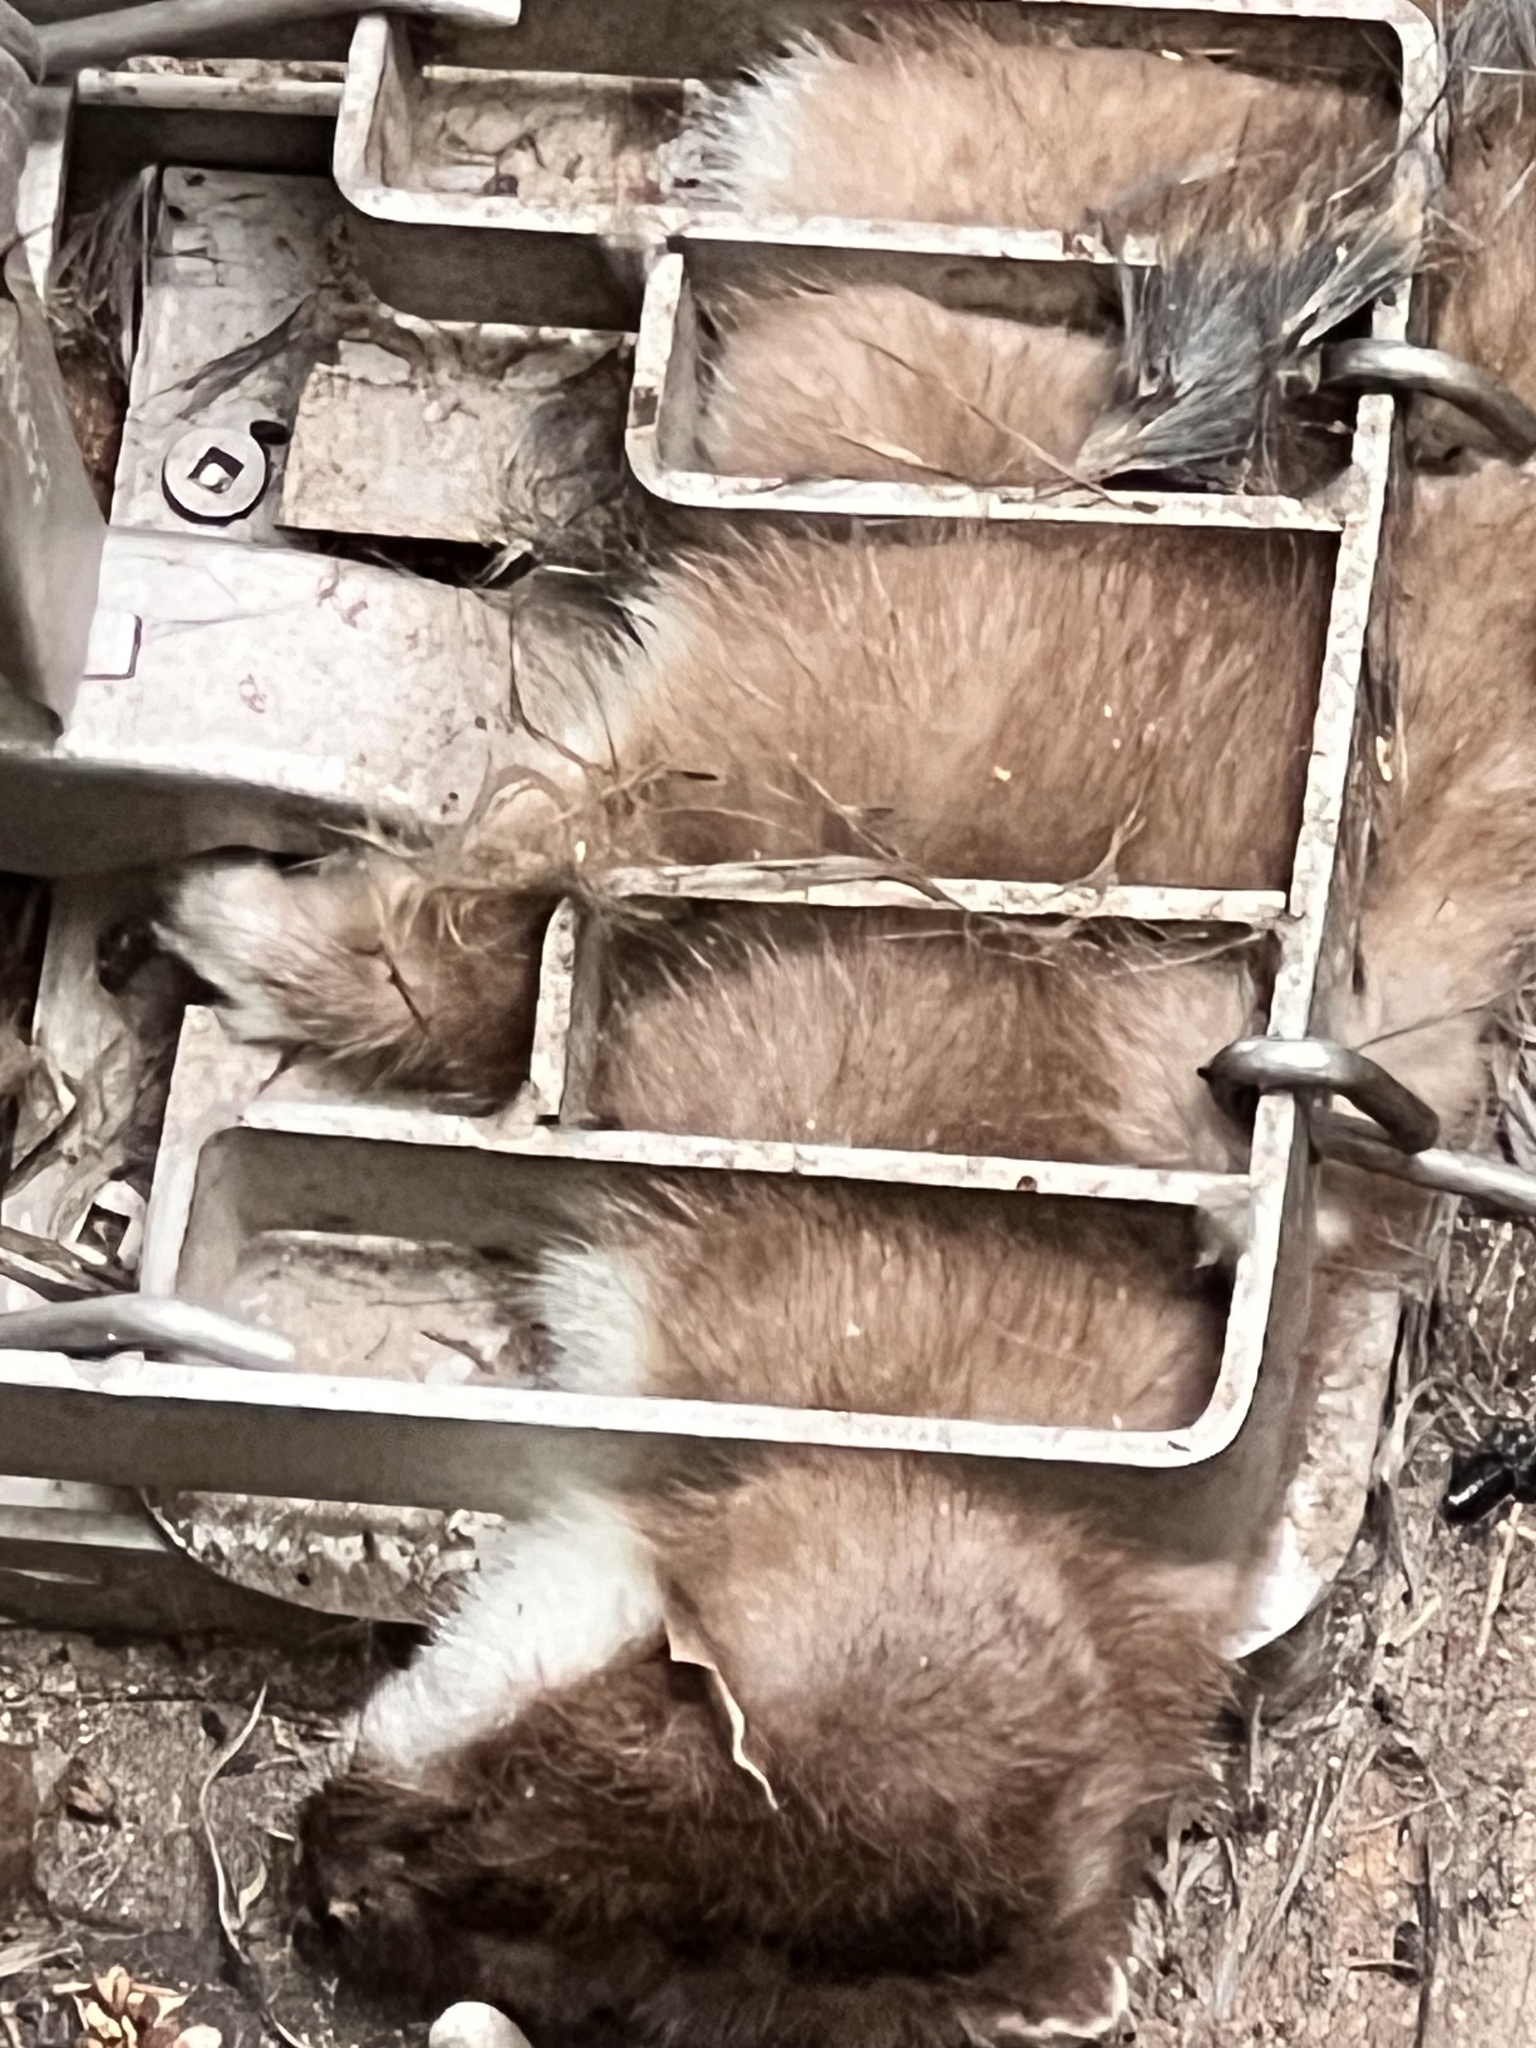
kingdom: Animalia
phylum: Chordata
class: Mammalia
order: Carnivora
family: Mustelidae
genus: Mustela
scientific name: Mustela erminea
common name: Stoat
